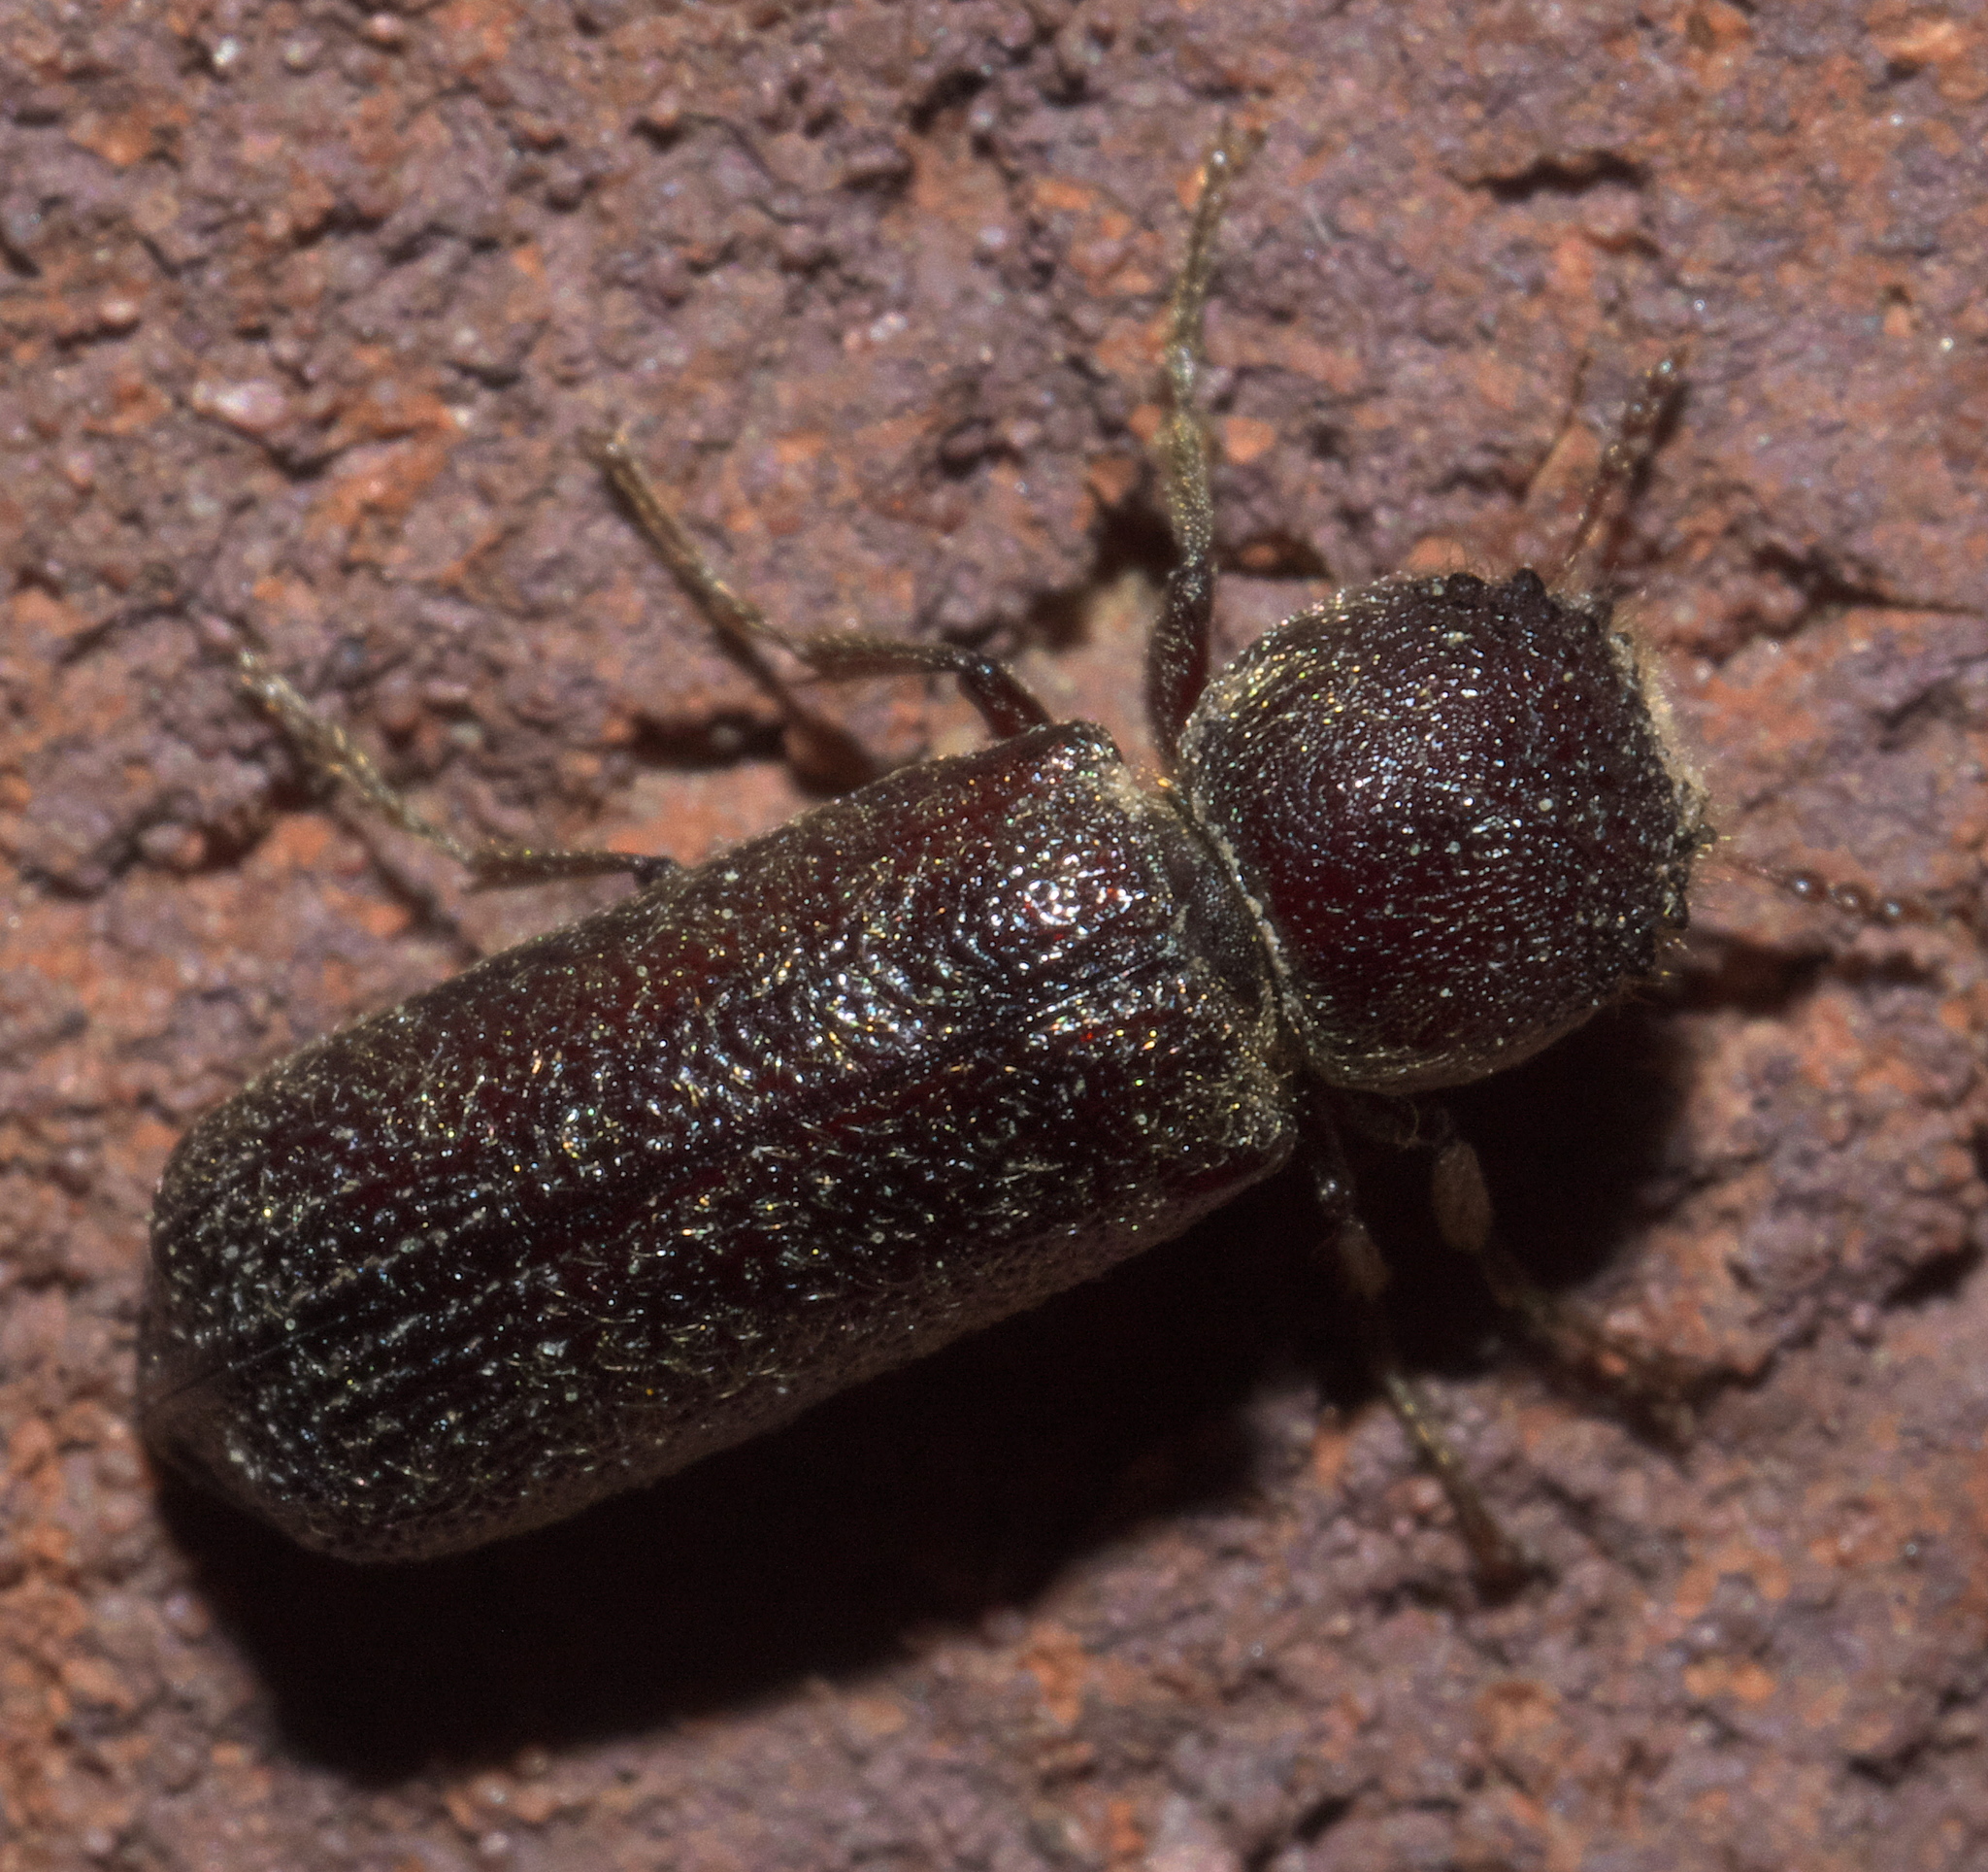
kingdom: Animalia
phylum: Arthropoda
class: Insecta
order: Coleoptera
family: Bostrichidae
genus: Amphicerus
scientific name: Amphicerus bicaudatus
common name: Apple twig borer
